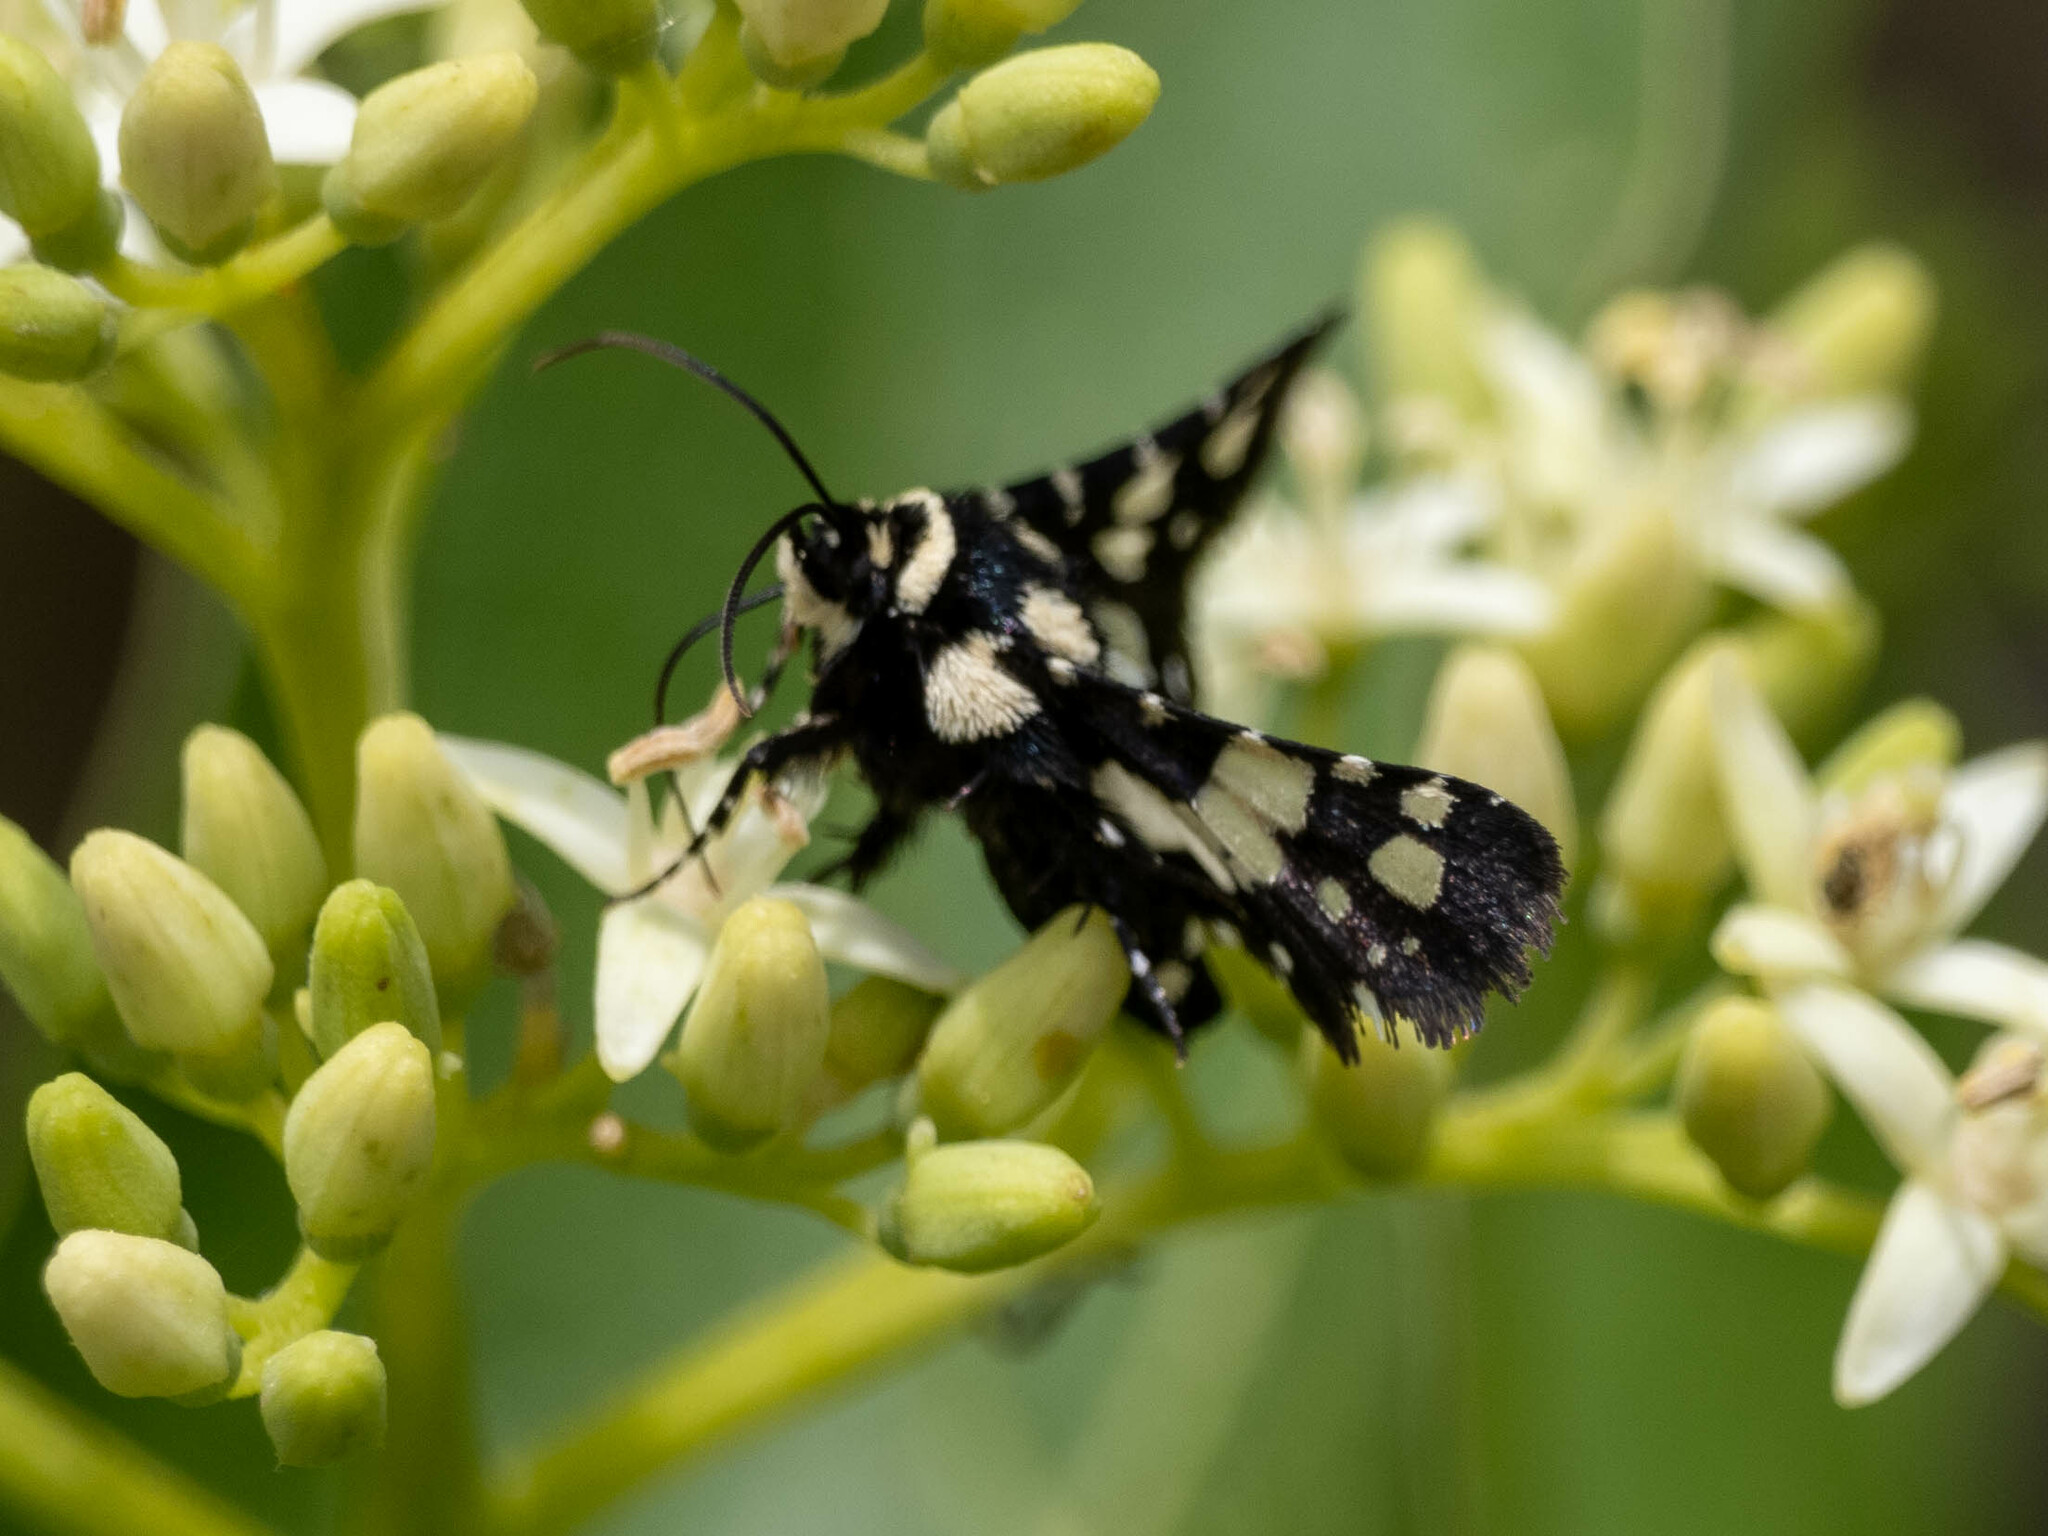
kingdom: Animalia
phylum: Arthropoda
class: Insecta
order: Lepidoptera
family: Thyrididae
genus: Pseudothyris
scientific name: Pseudothyris sepulchralis
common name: Mournful thyris moth
